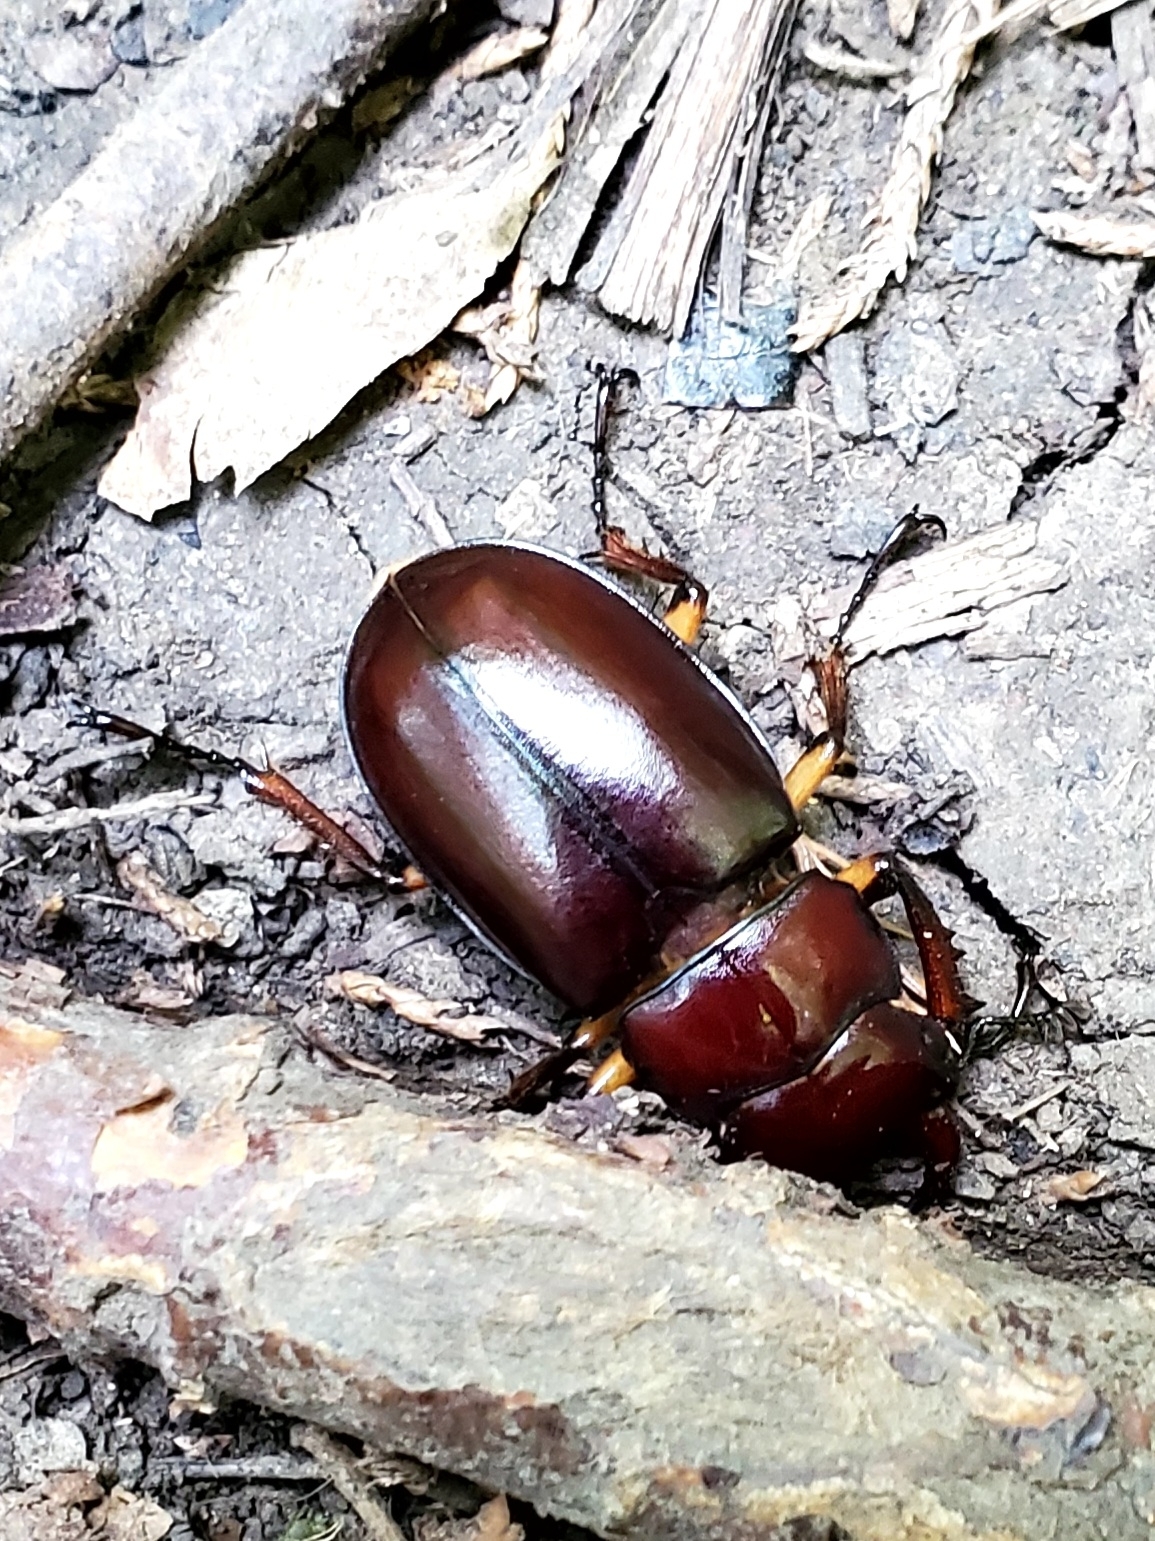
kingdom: Animalia
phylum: Arthropoda
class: Insecta
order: Coleoptera
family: Lucanidae
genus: Lucanus
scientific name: Lucanus capreolus
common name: Stag beetle
